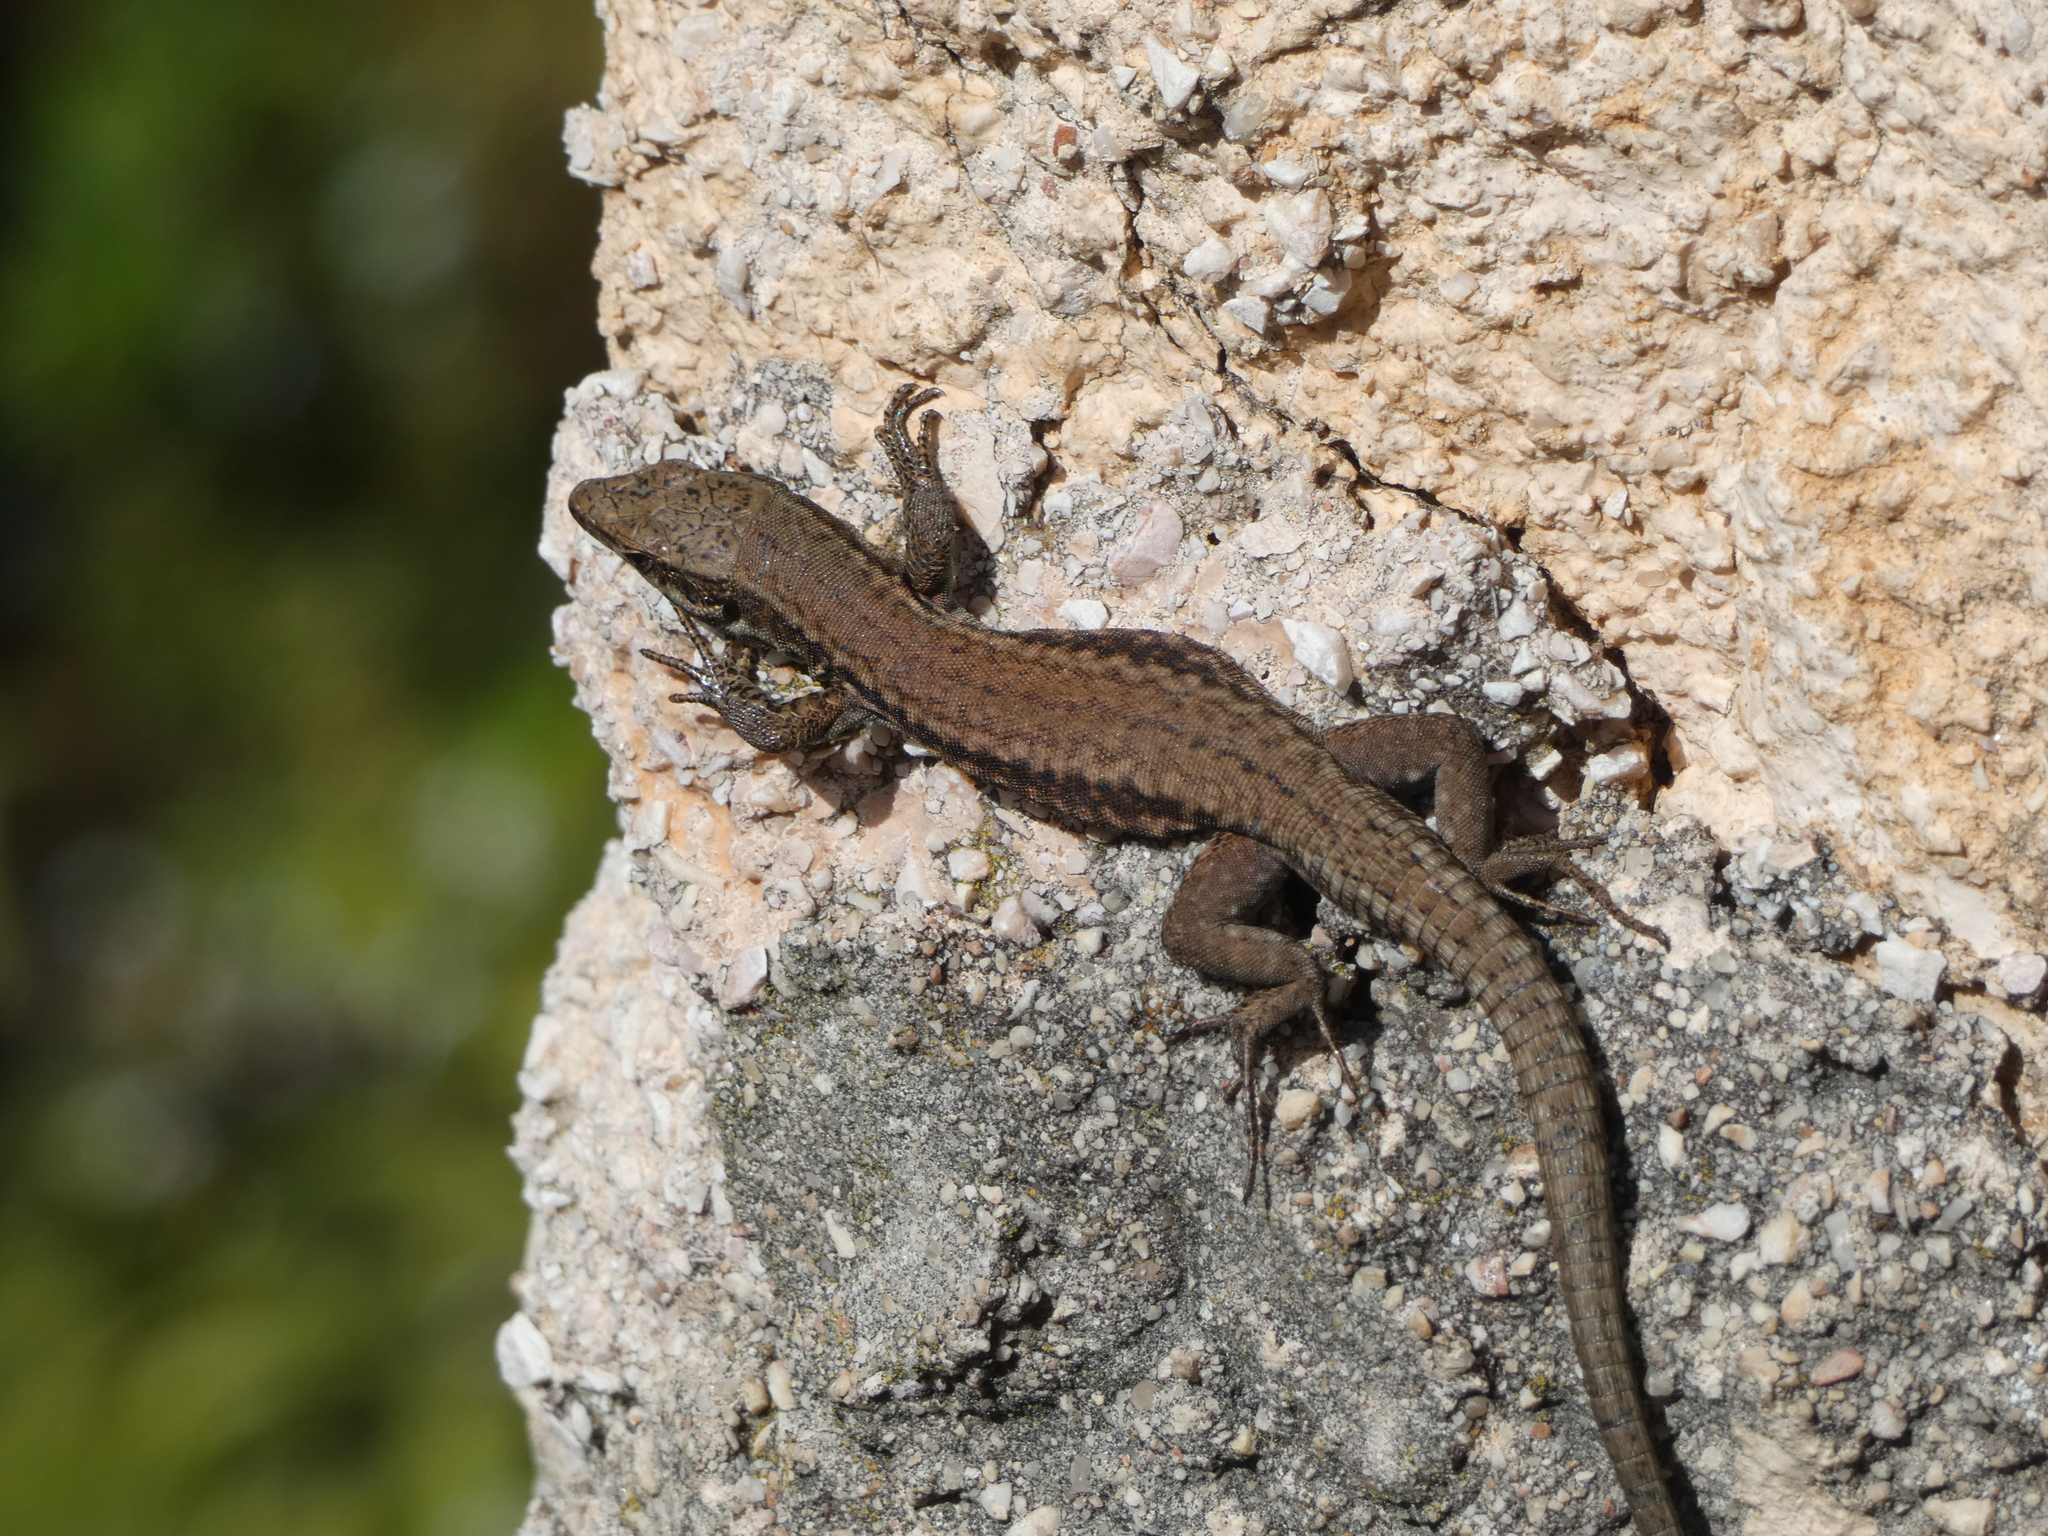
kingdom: Animalia
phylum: Chordata
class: Squamata
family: Lacertidae
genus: Podarcis
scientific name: Podarcis muralis
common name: Common wall lizard
